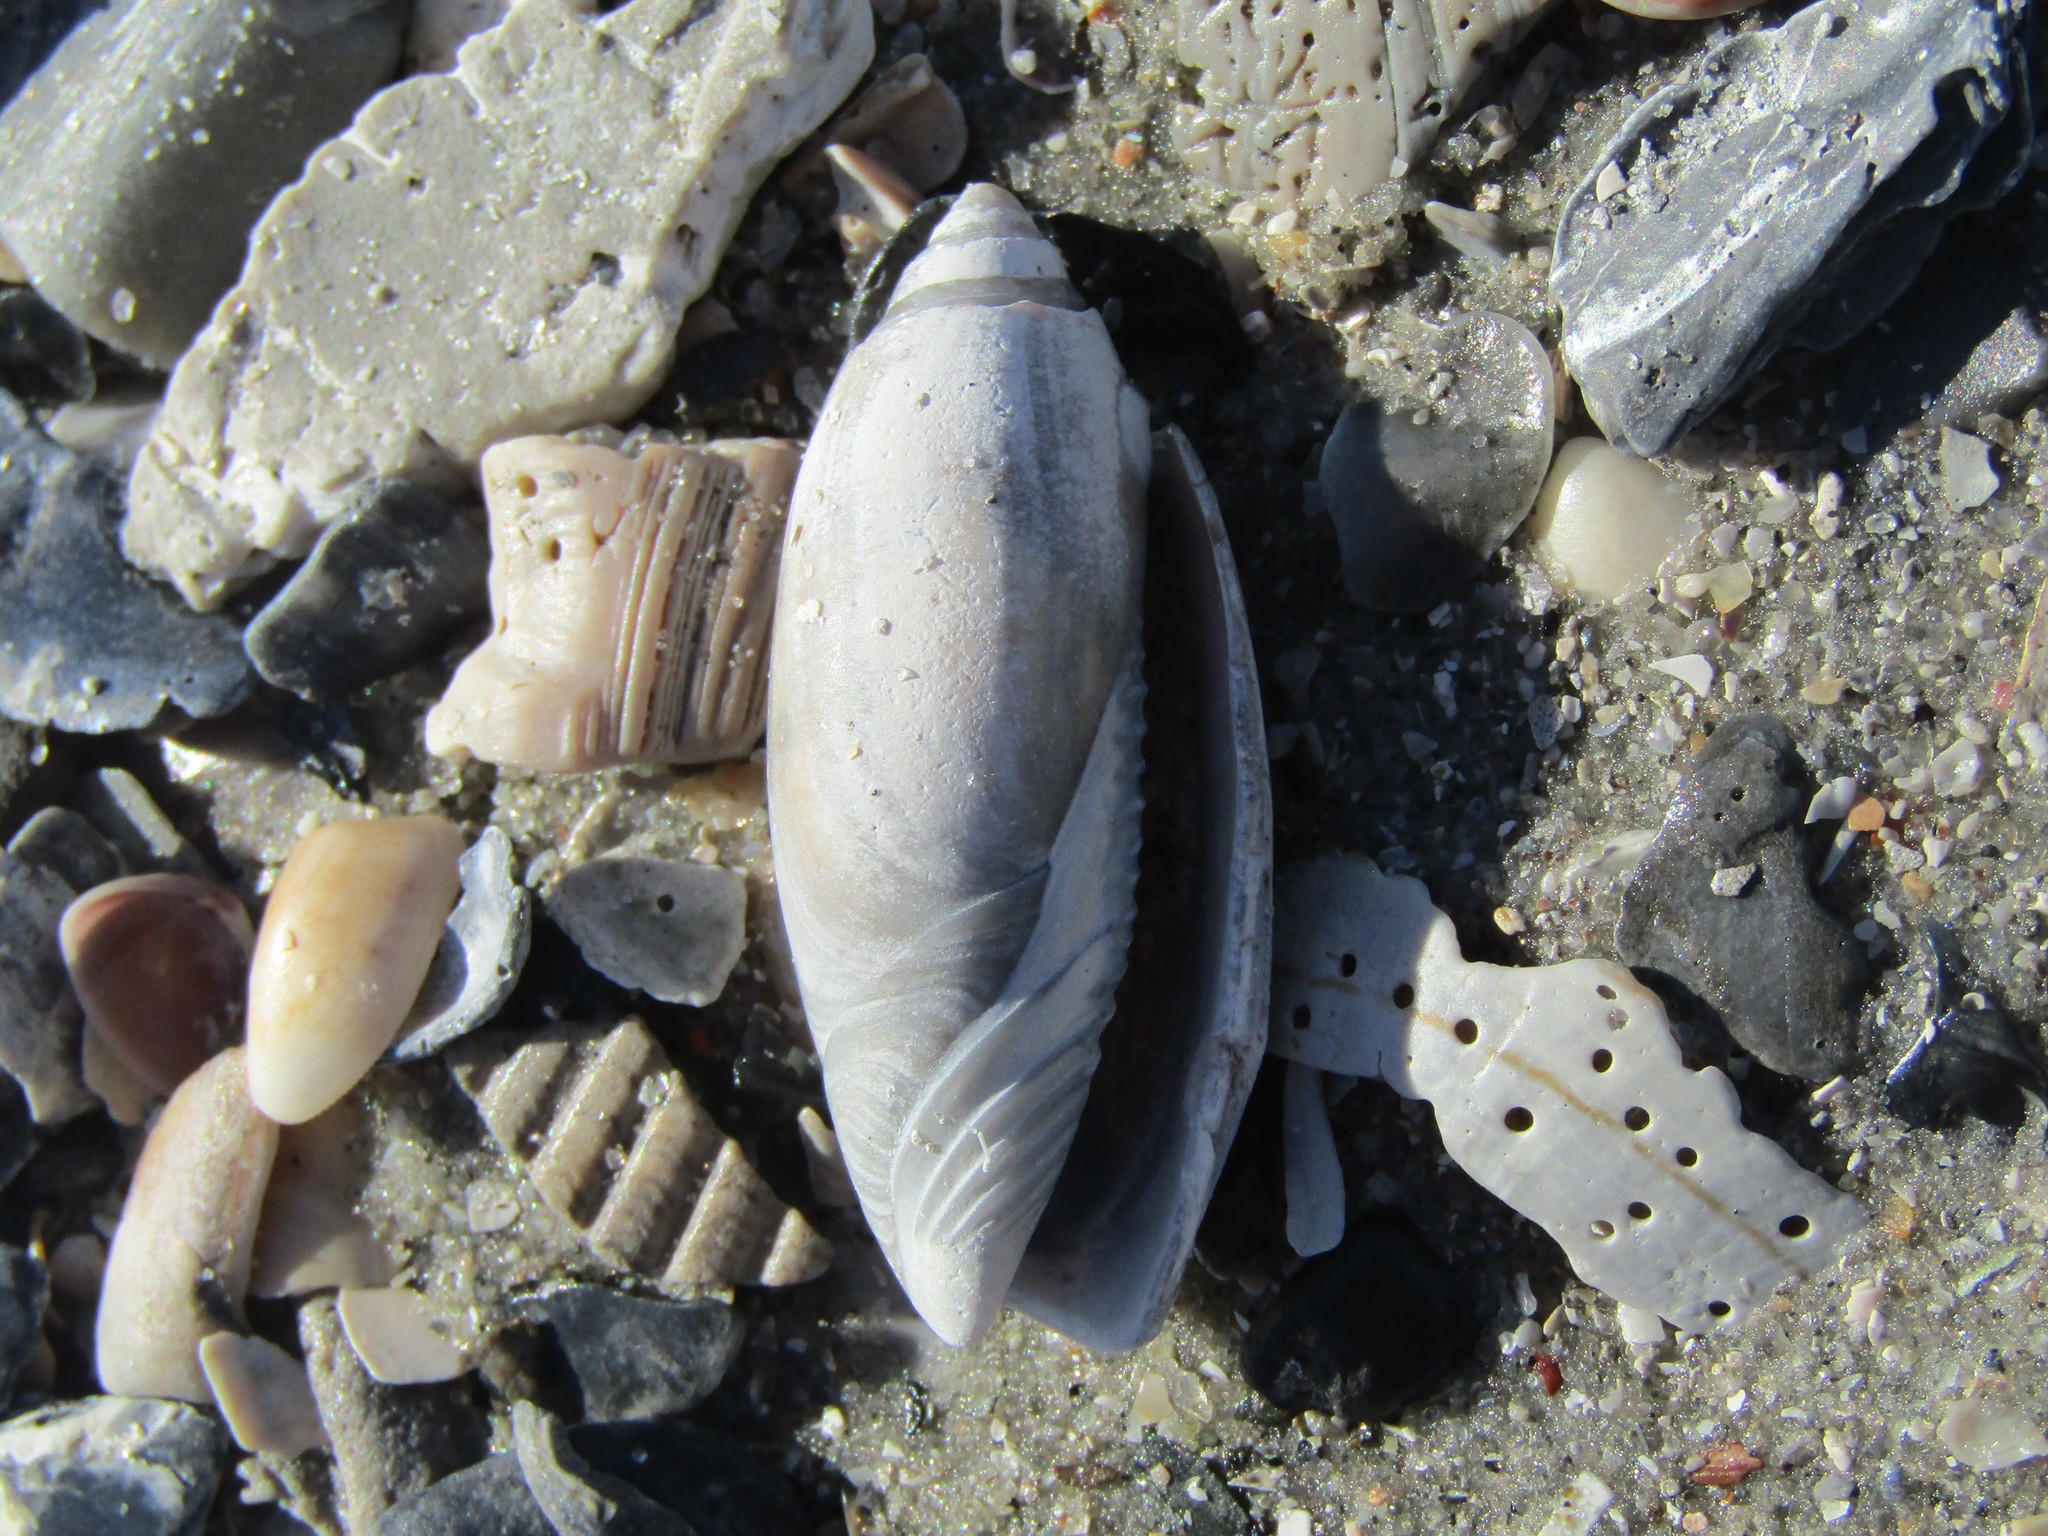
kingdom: Animalia
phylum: Mollusca
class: Gastropoda
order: Neogastropoda
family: Olividae
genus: Oliva
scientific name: Oliva sayana
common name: Lettered olive
